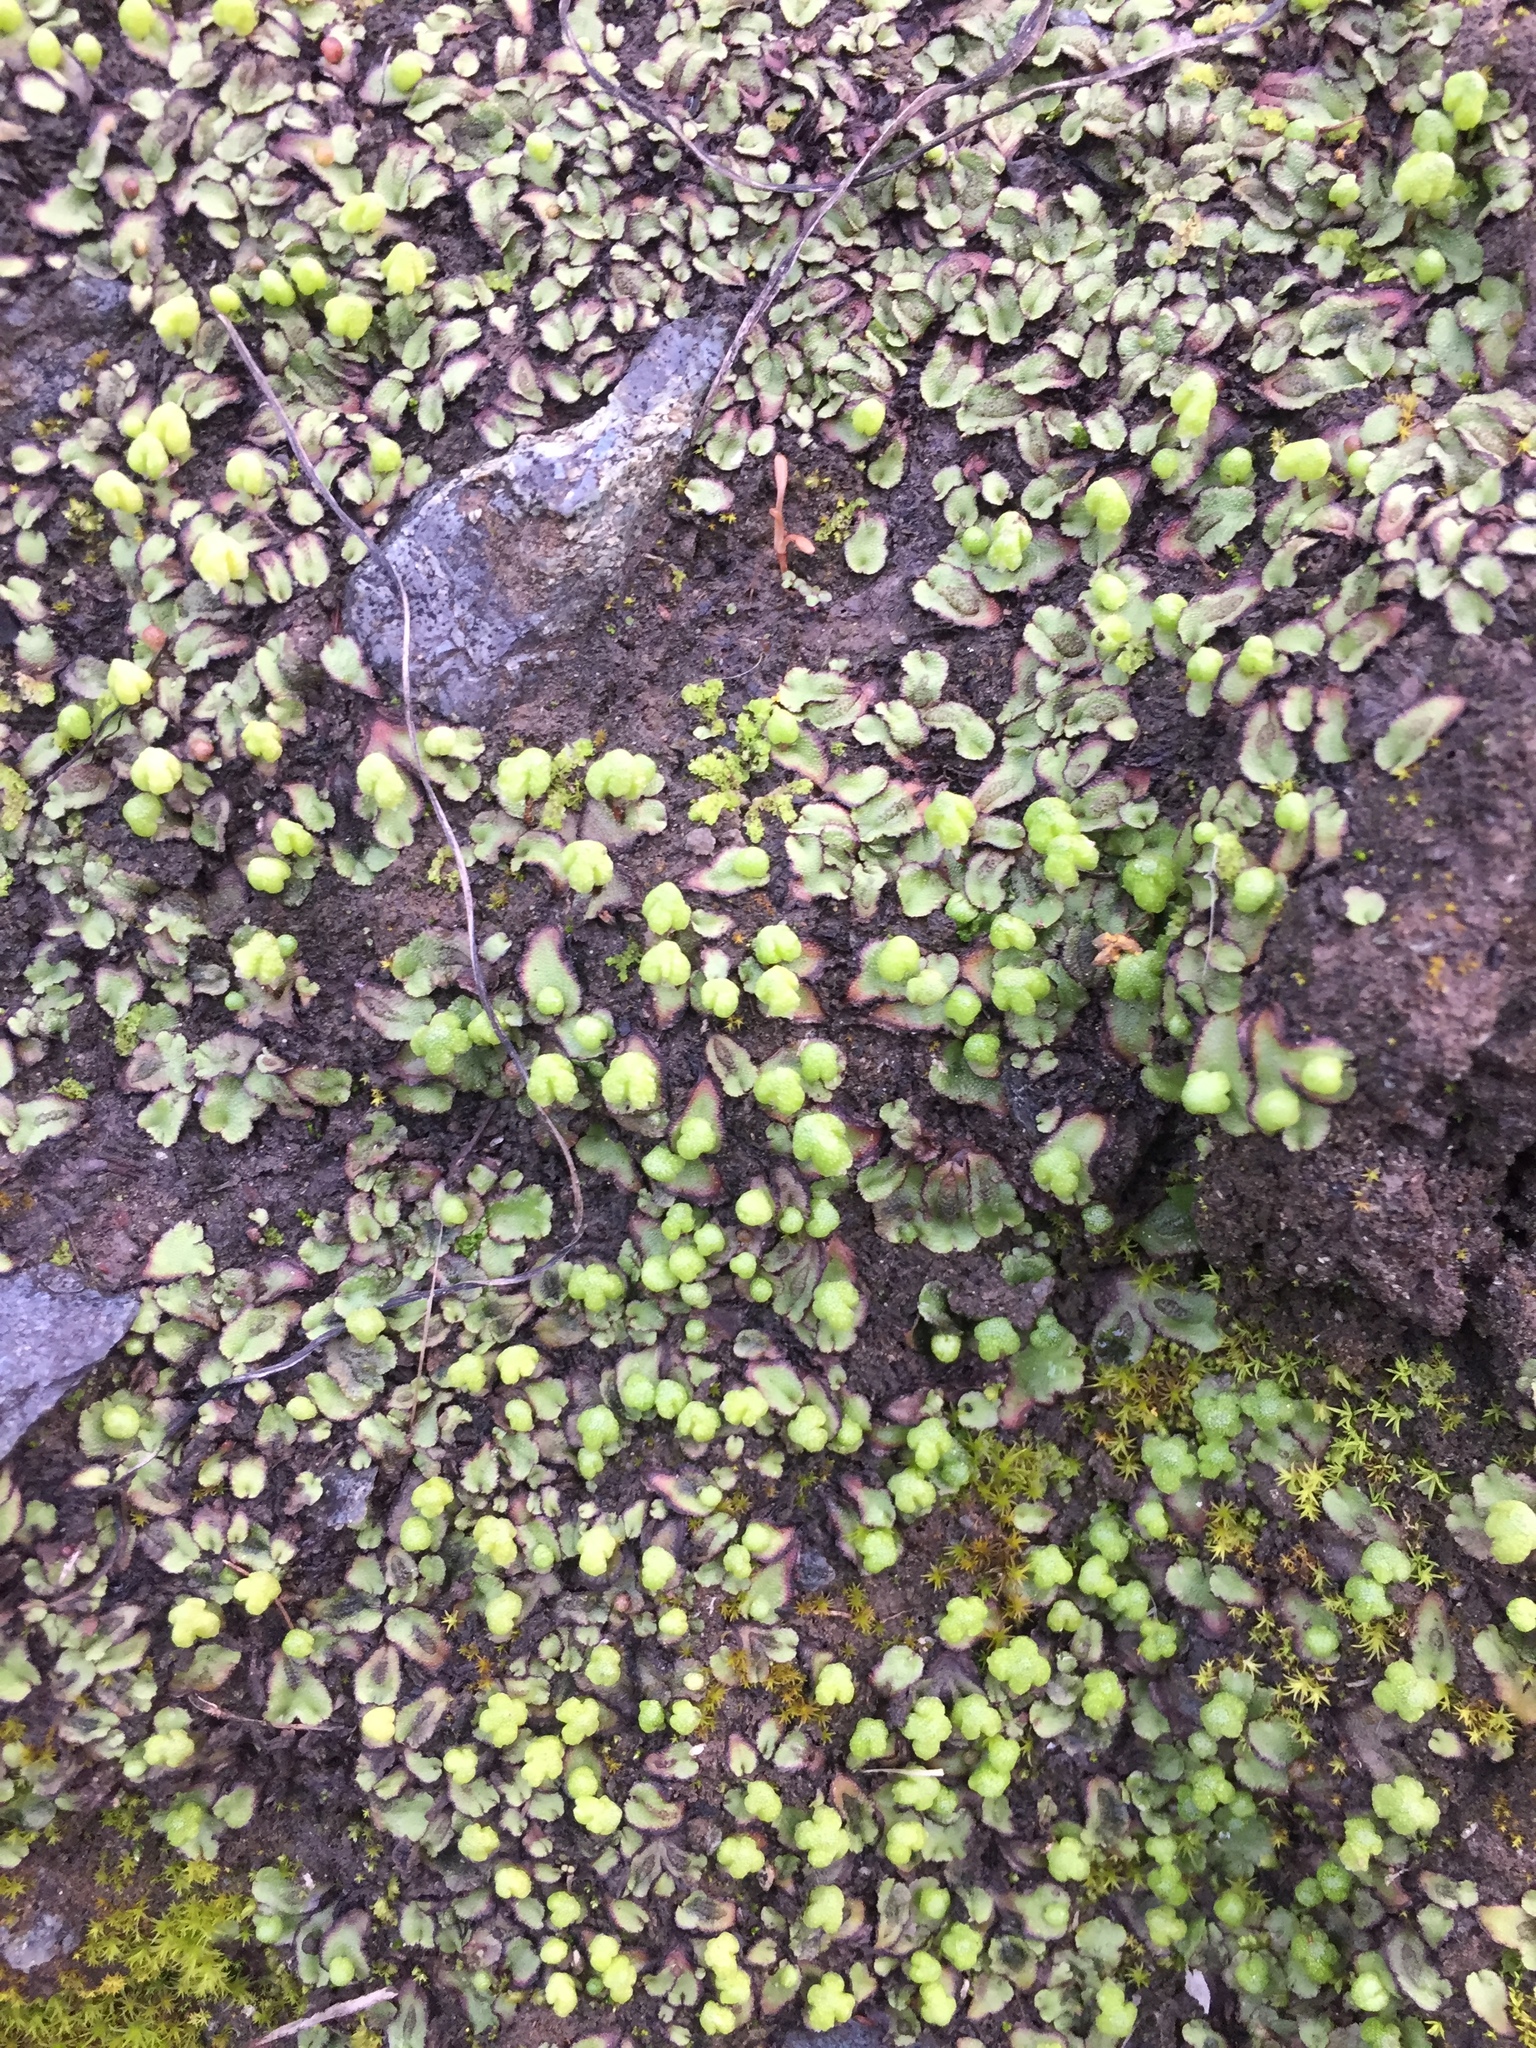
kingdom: Plantae
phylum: Marchantiophyta
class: Marchantiopsida
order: Marchantiales
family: Aytoniaceae
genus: Asterella
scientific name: Asterella californica
